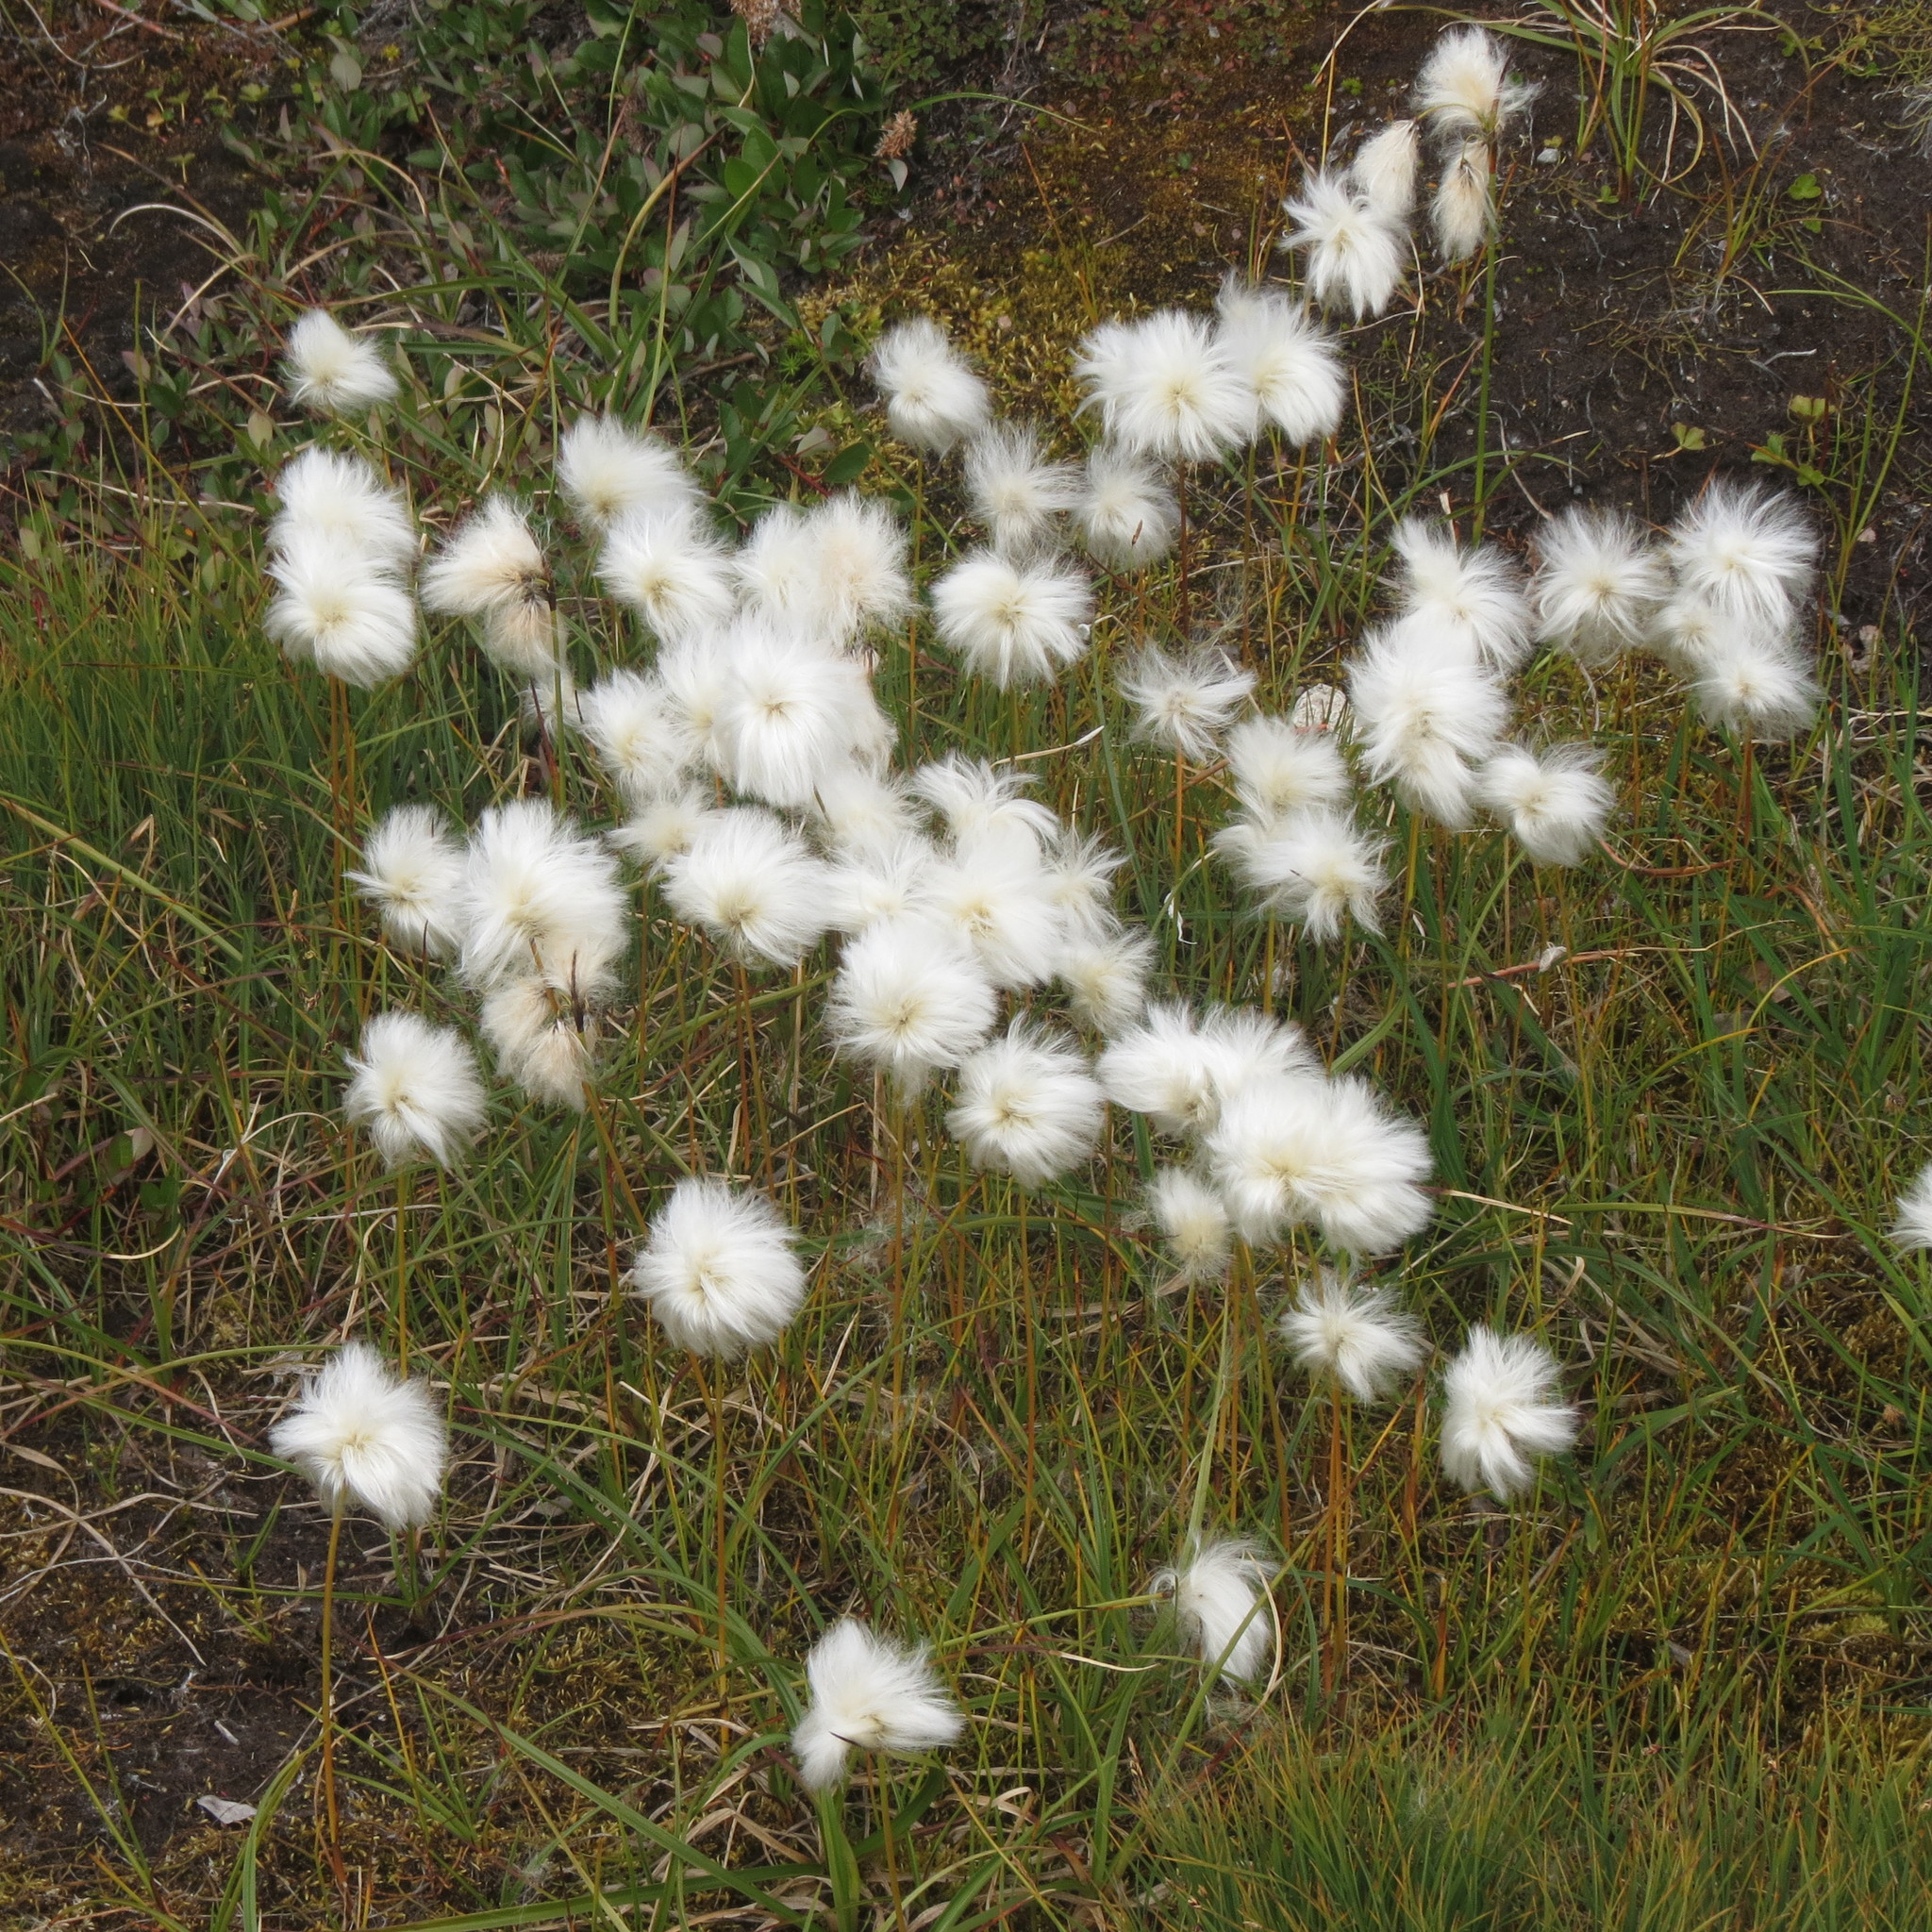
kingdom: Plantae
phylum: Tracheophyta
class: Liliopsida
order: Poales
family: Cyperaceae
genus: Eriophorum
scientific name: Eriophorum angustifolium
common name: Common cottongrass
